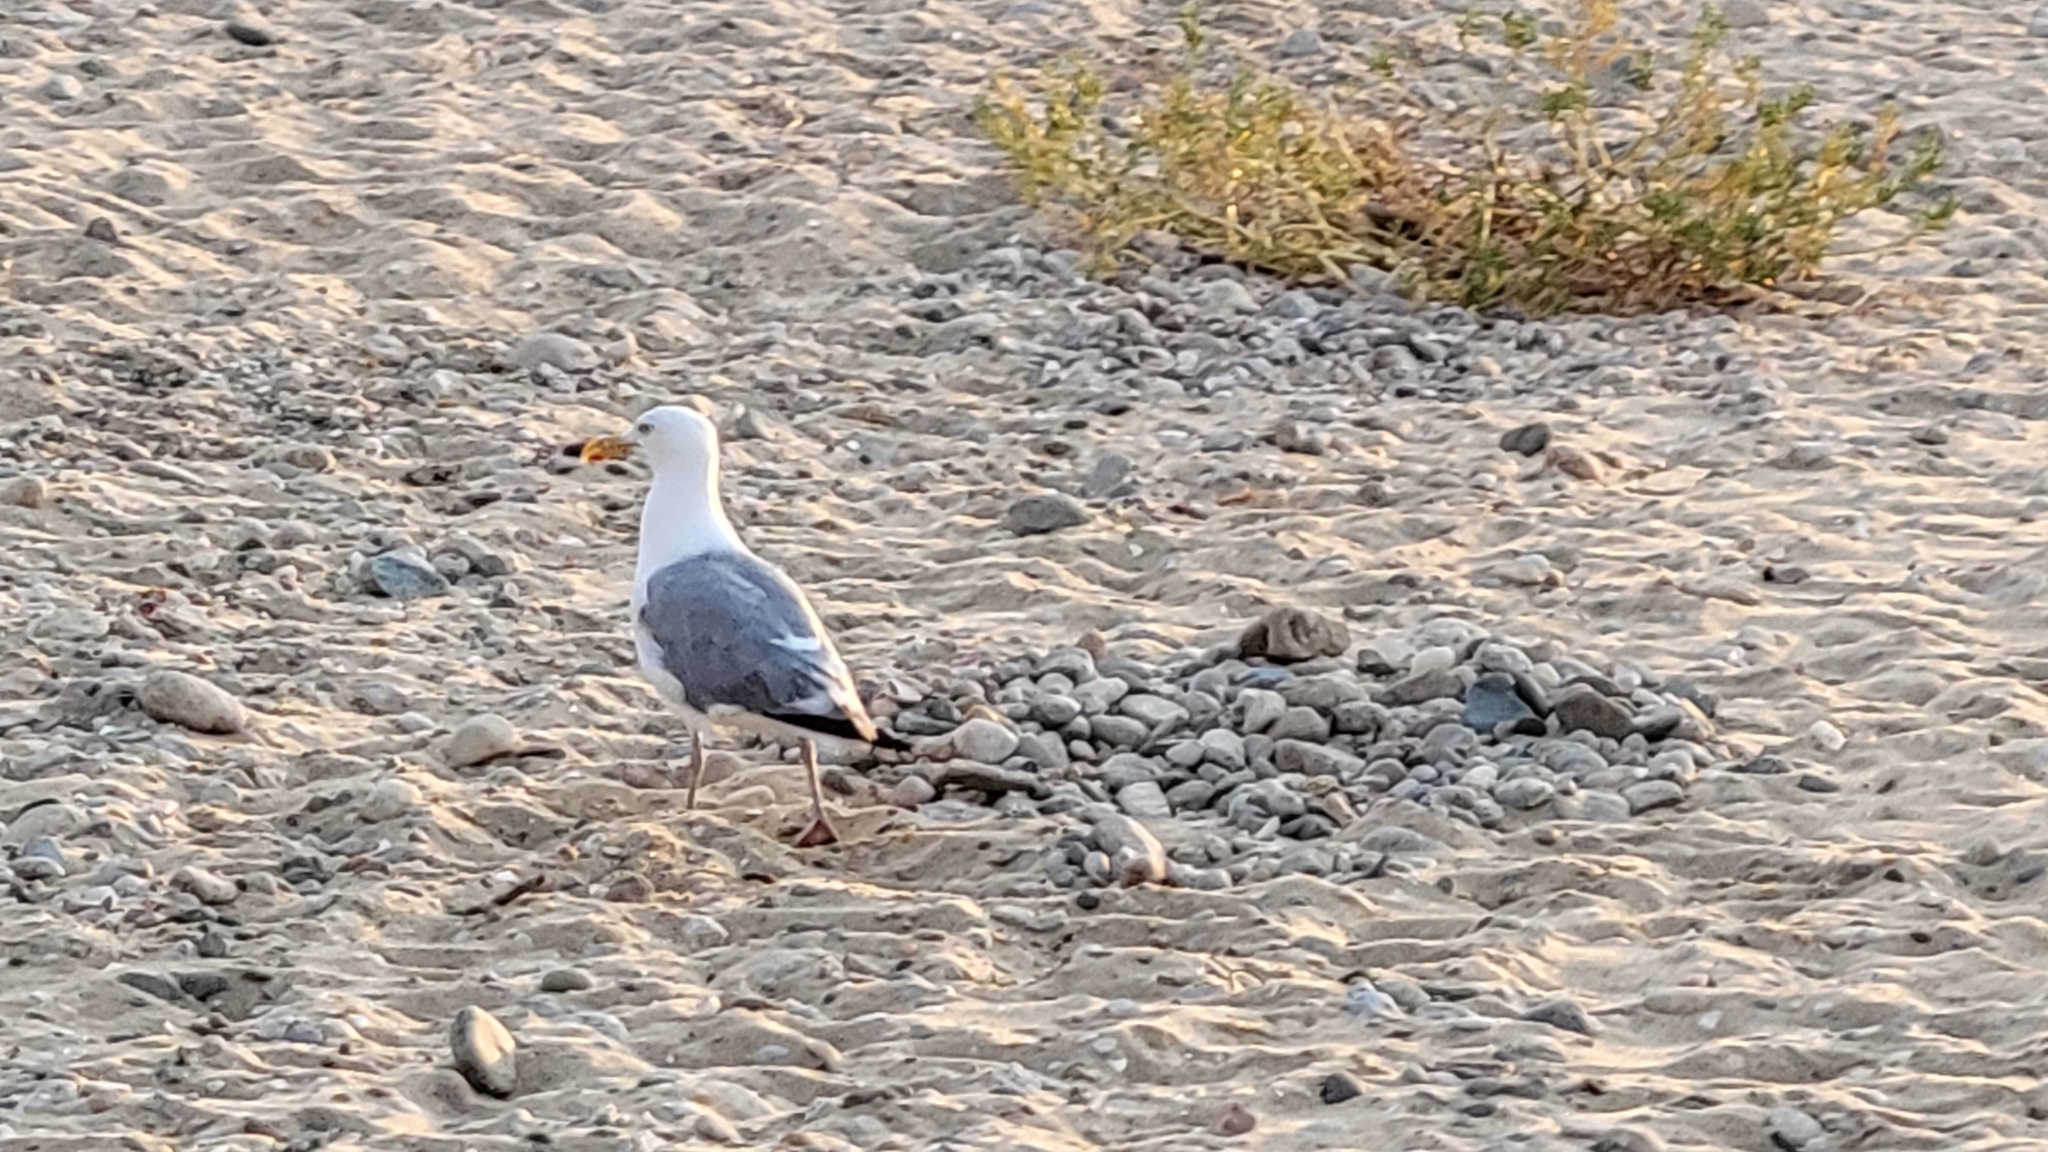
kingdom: Animalia
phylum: Chordata
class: Aves
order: Charadriiformes
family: Laridae
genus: Larus
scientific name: Larus argentatus
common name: Herring gull
